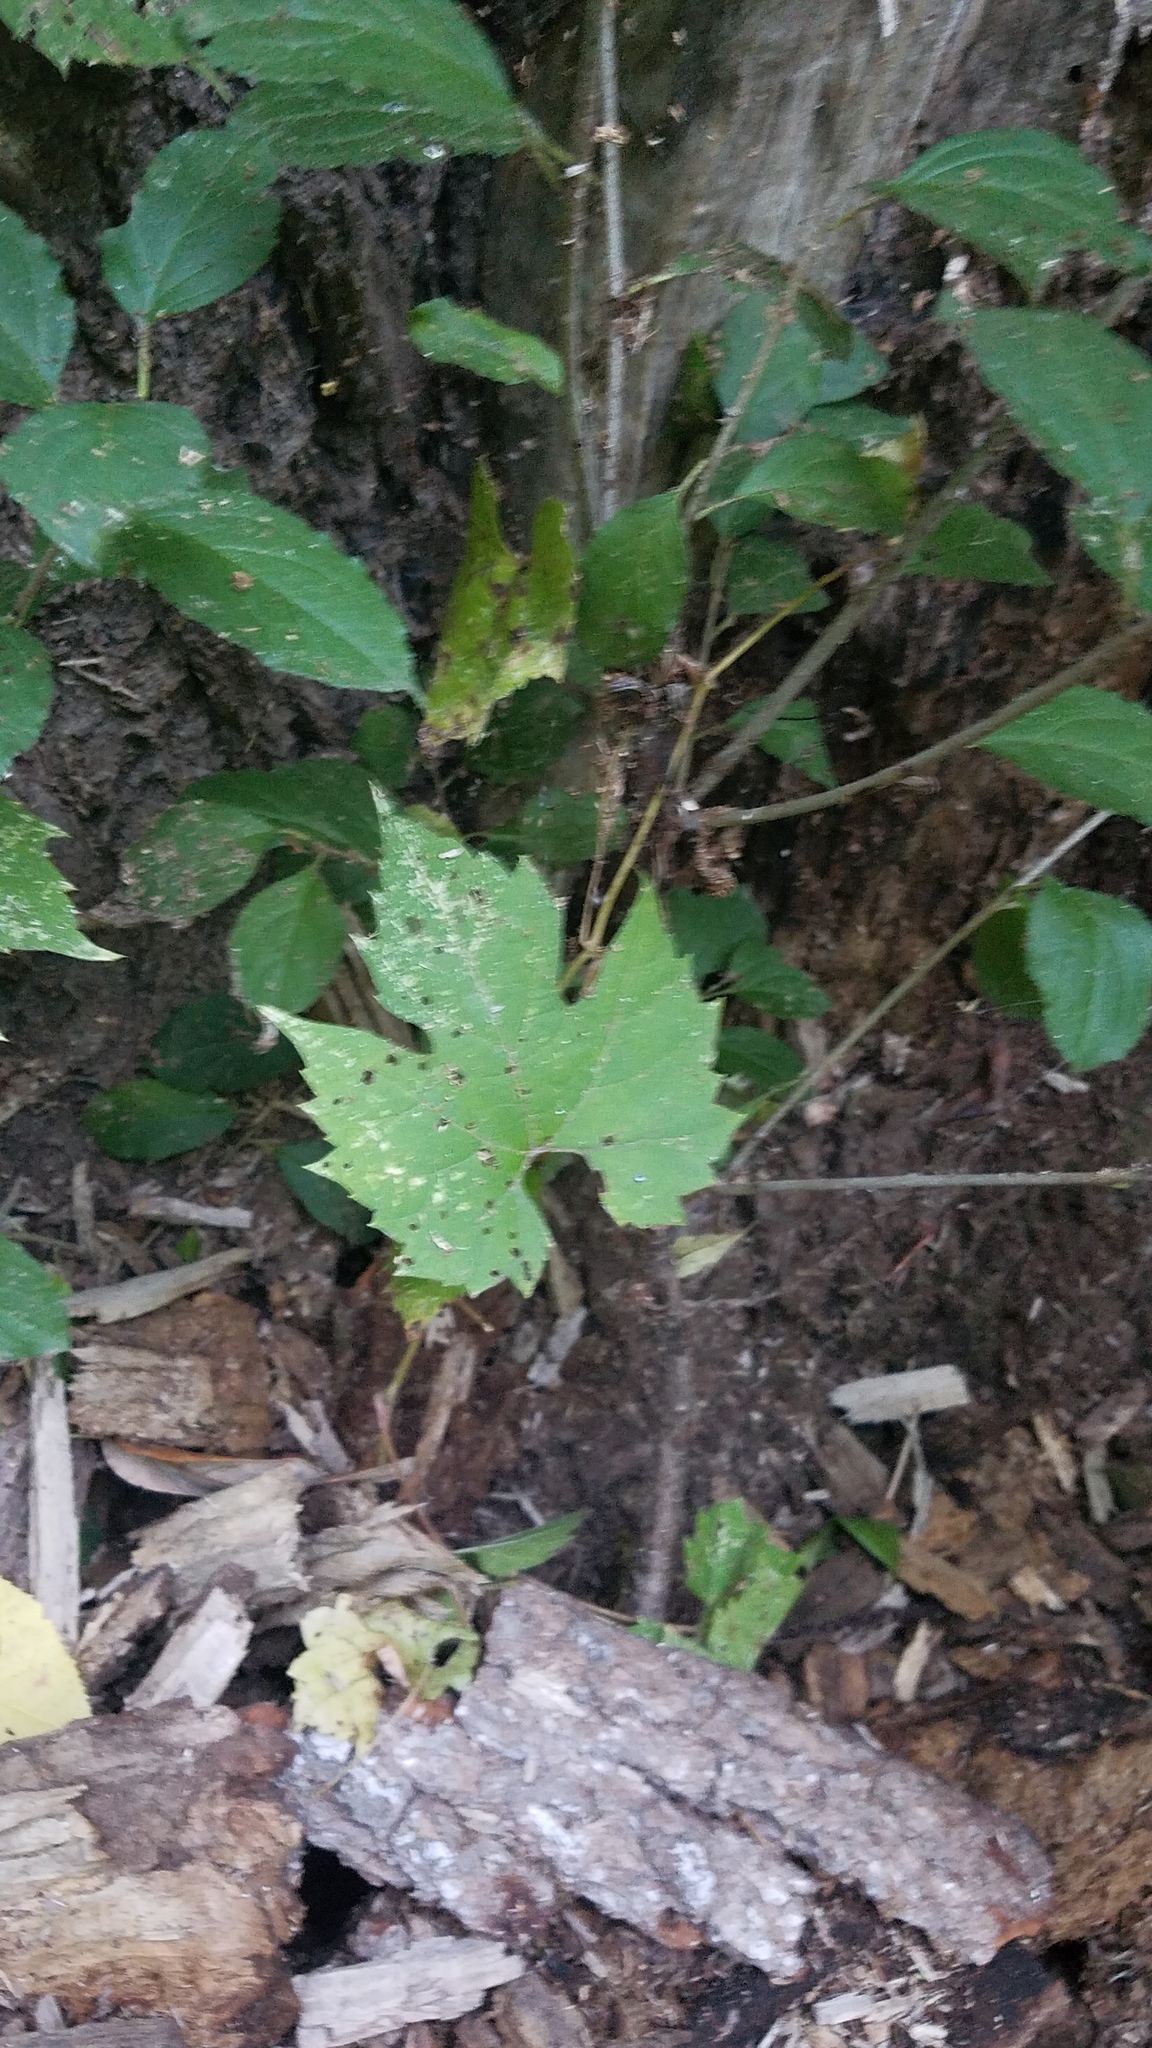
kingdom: Plantae
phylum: Tracheophyta
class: Magnoliopsida
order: Vitales
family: Vitaceae
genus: Vitis
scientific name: Vitis riparia
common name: Frost grape
